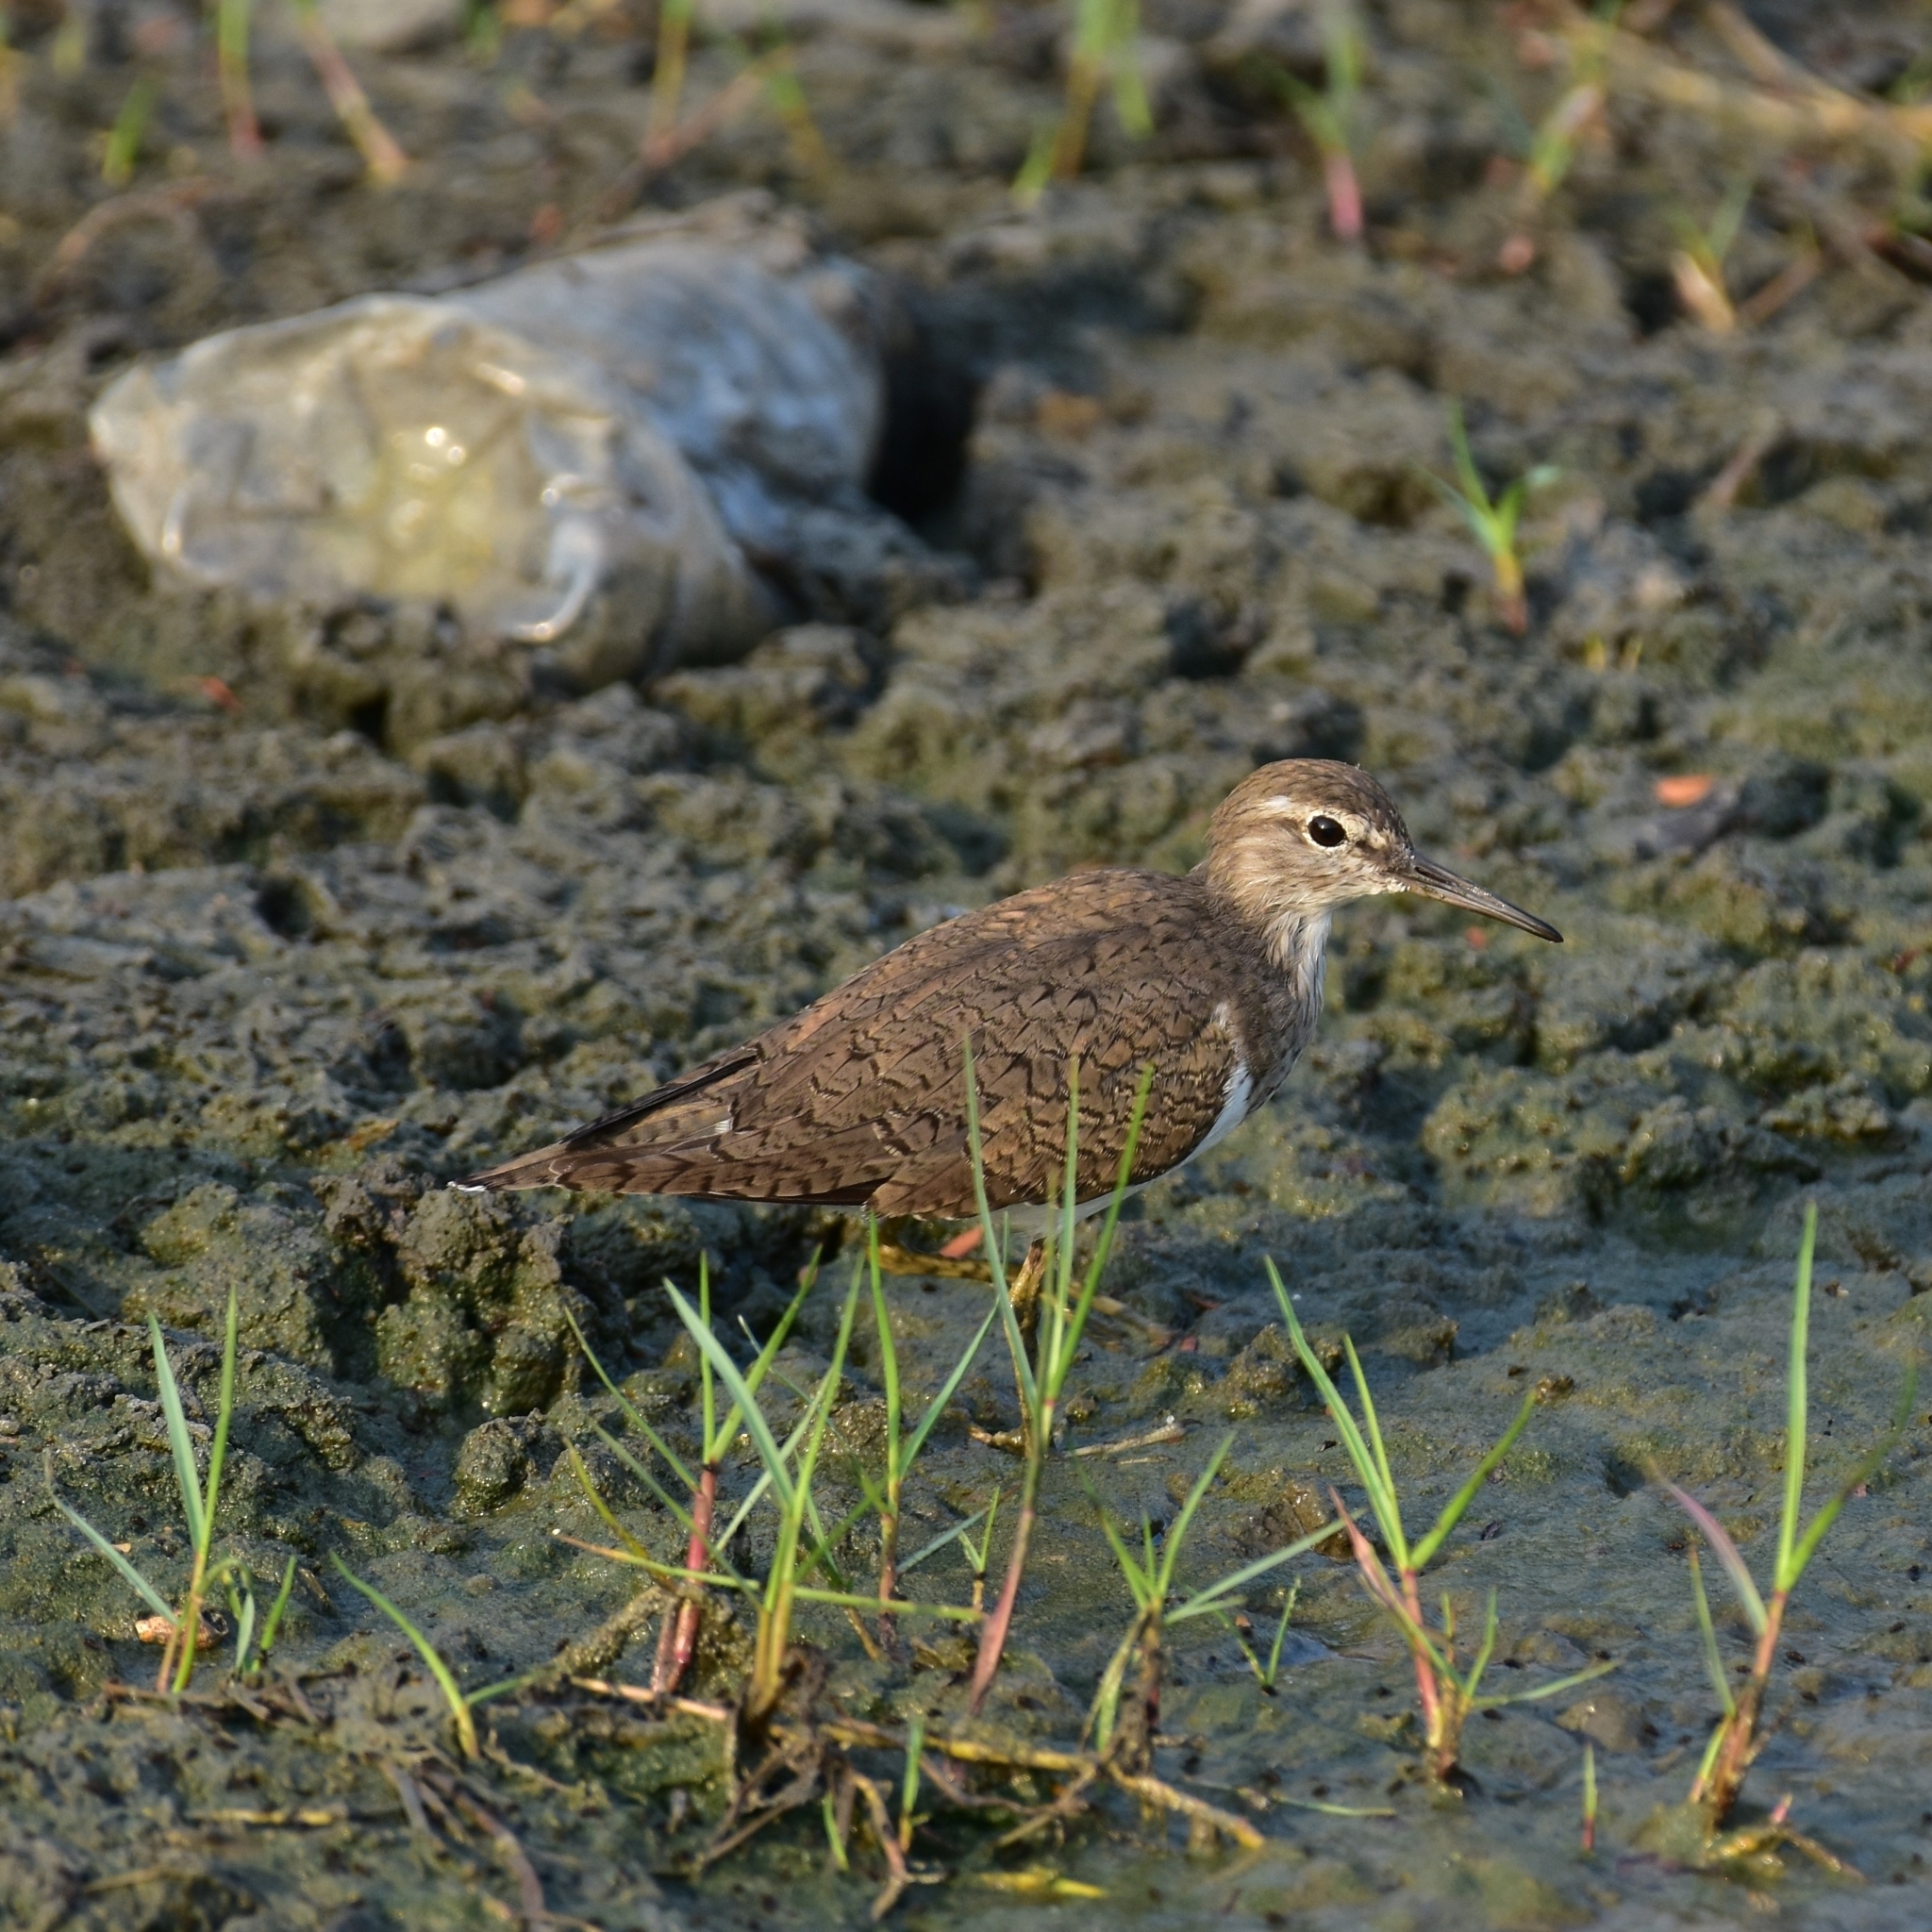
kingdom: Animalia
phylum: Chordata
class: Aves
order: Charadriiformes
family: Scolopacidae
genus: Actitis
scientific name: Actitis hypoleucos
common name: Common sandpiper
